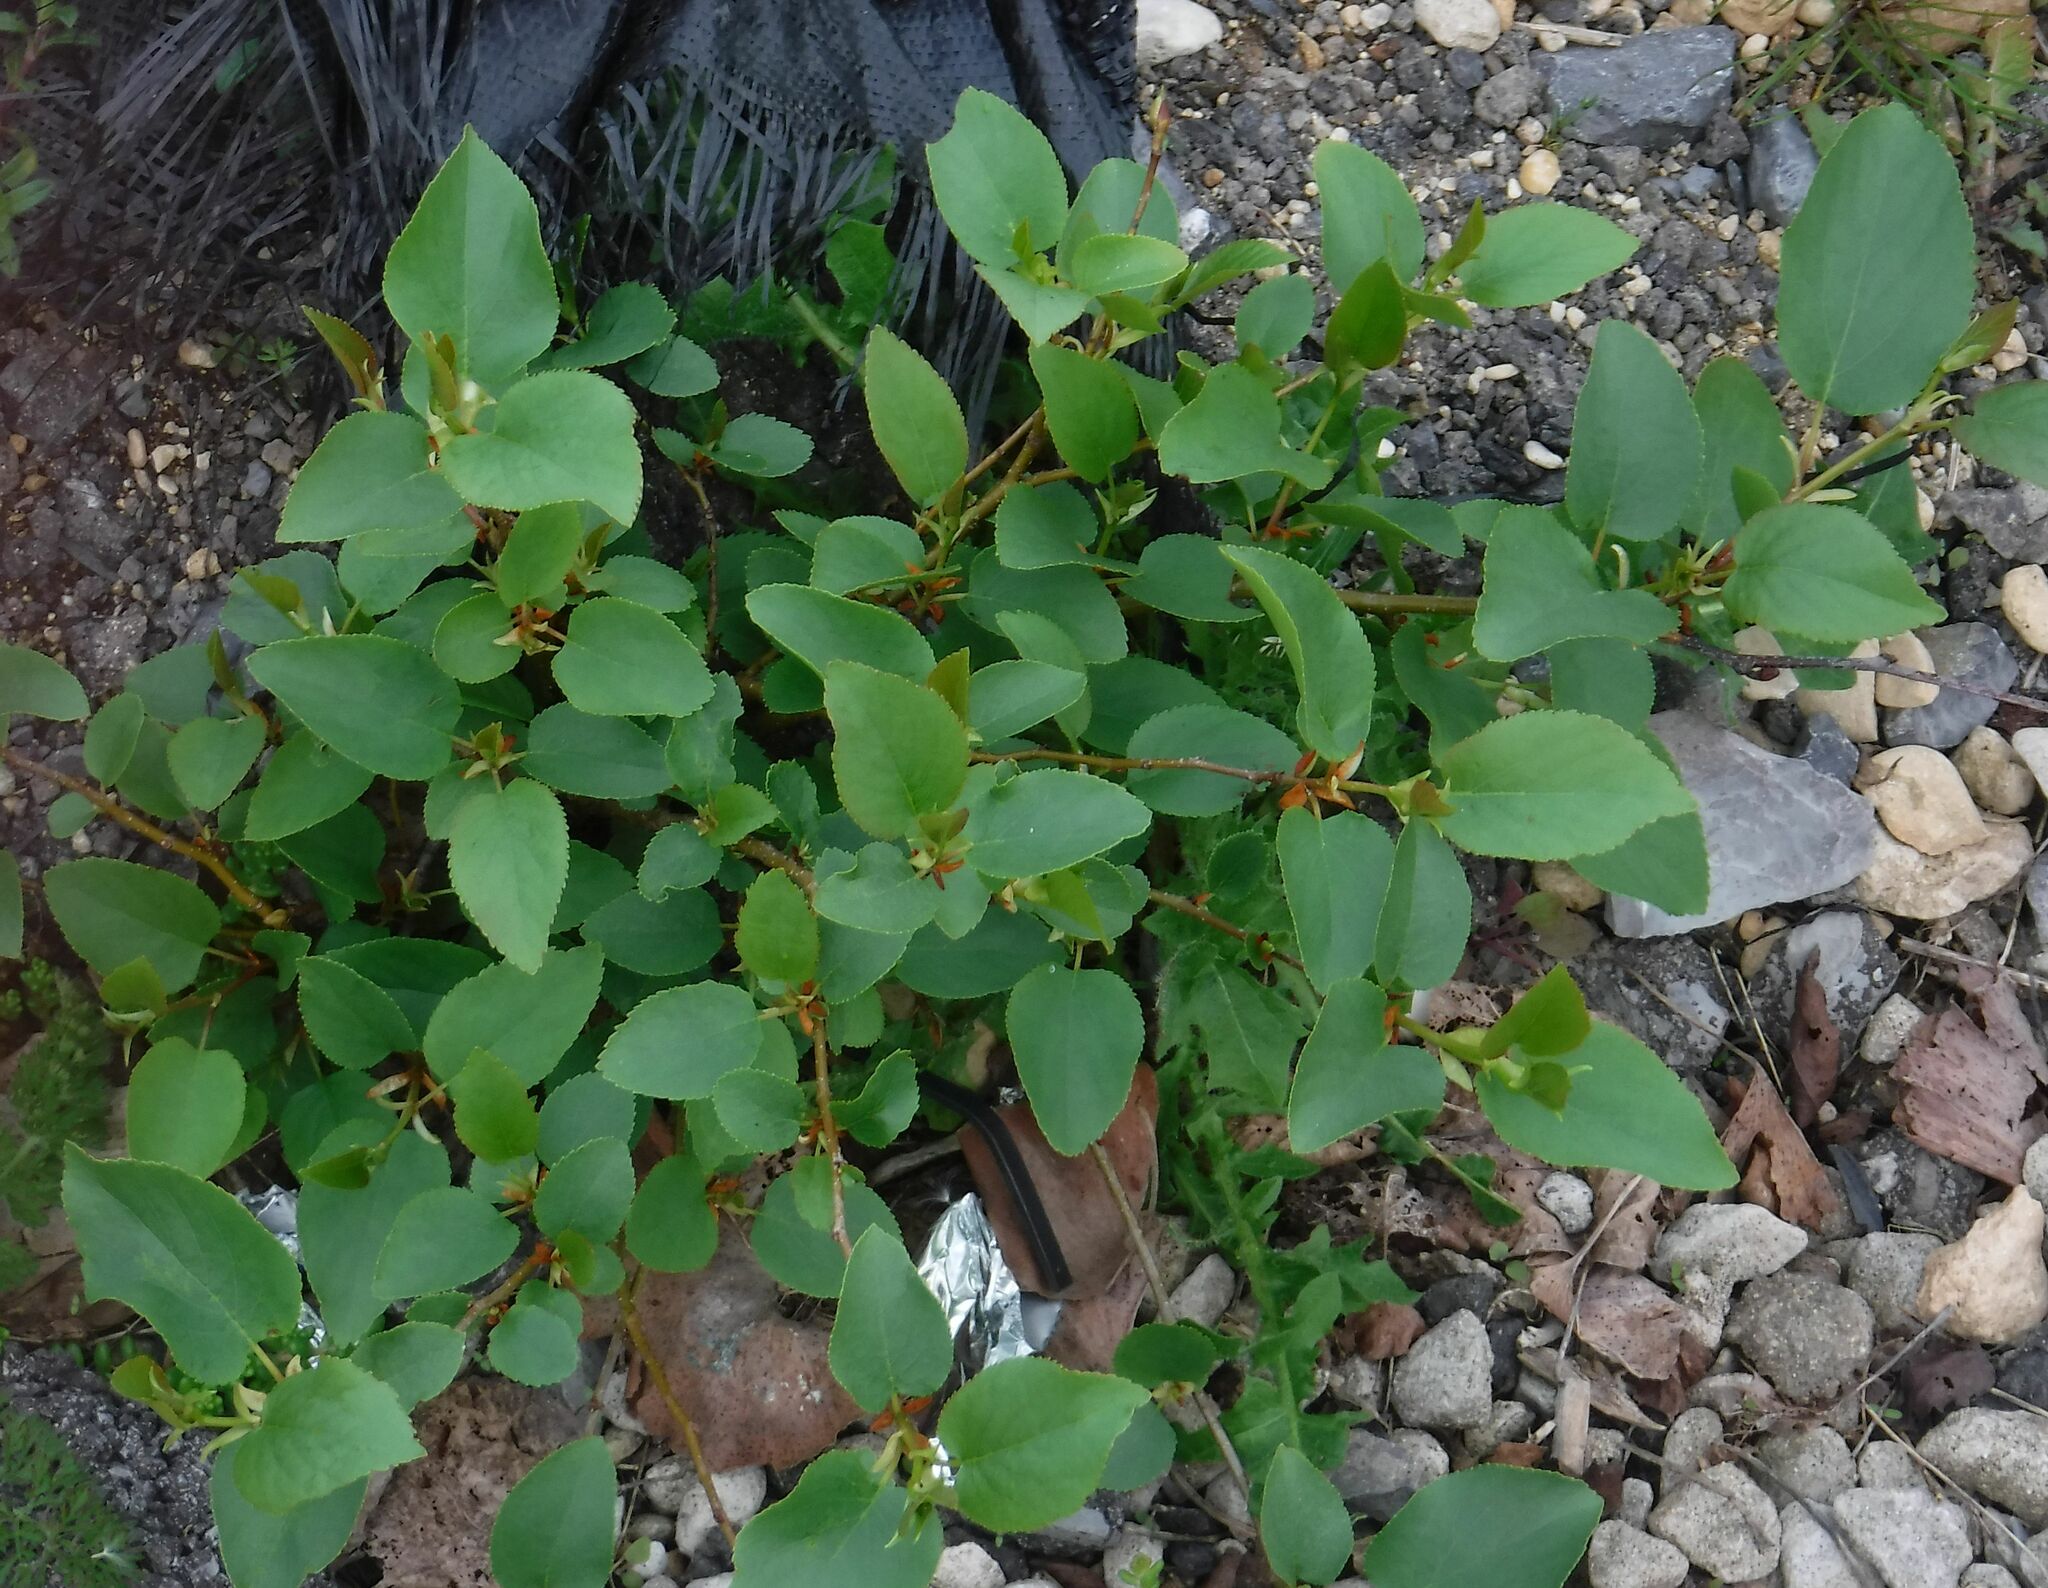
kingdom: Plantae
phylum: Tracheophyta
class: Magnoliopsida
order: Fagales
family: Betulaceae
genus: Alnus
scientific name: Alnus cordata
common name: Italian alder
